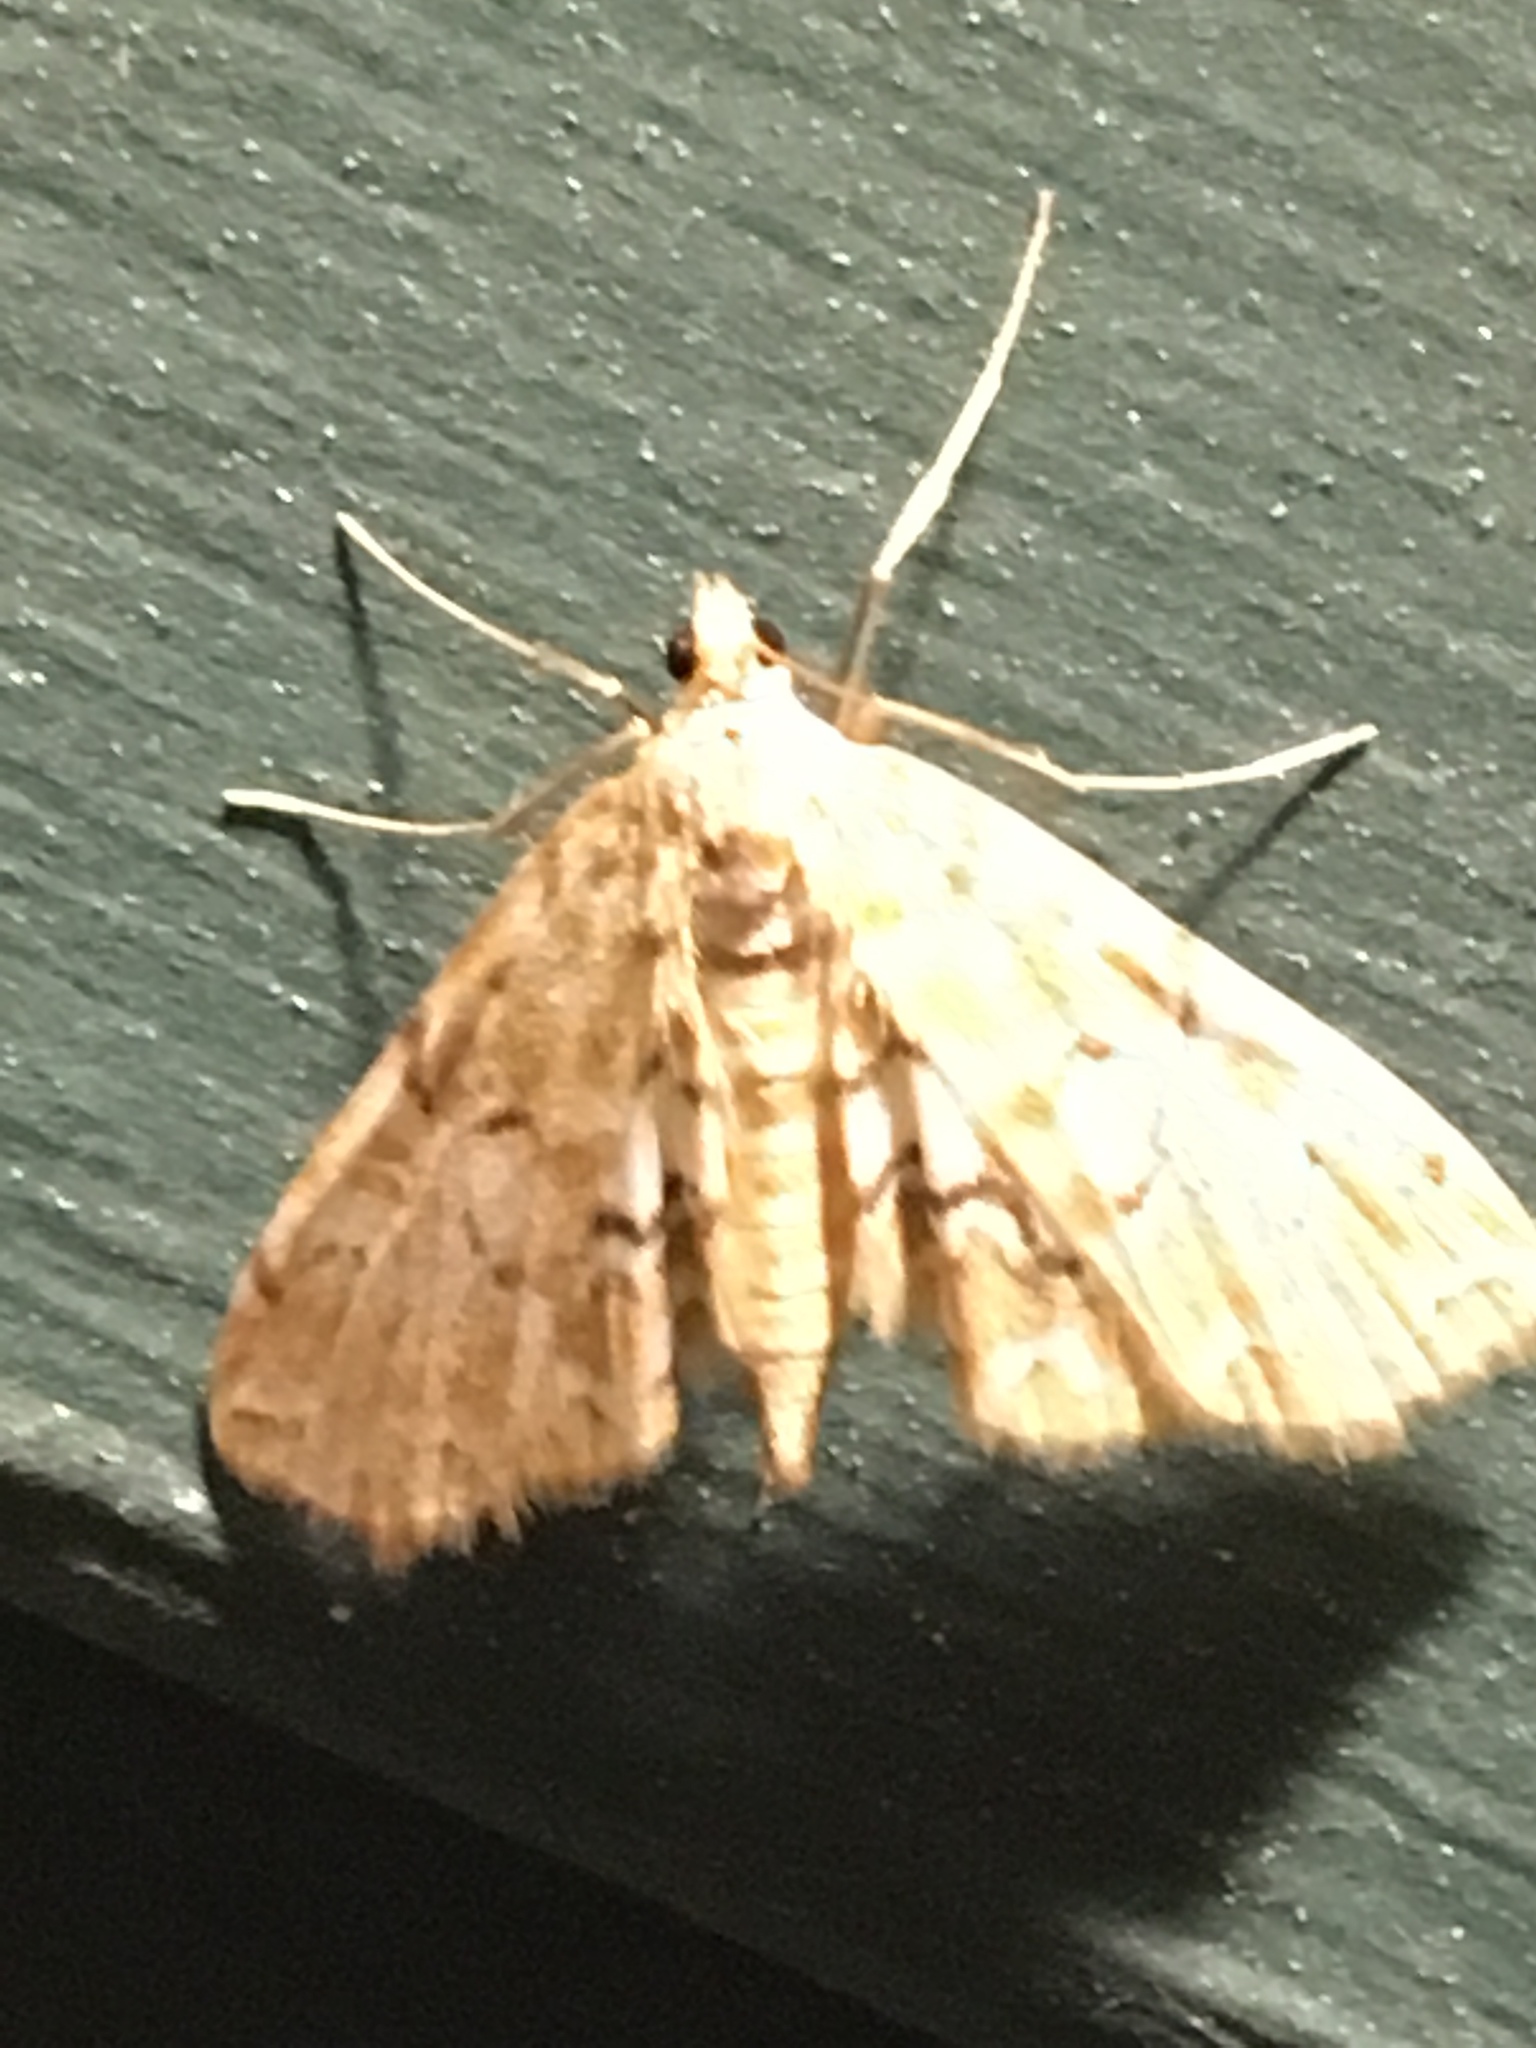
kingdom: Animalia
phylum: Arthropoda
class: Insecta
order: Lepidoptera
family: Crambidae
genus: Elophila
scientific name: Elophila icciusalis
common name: Pondside pyralid moth
